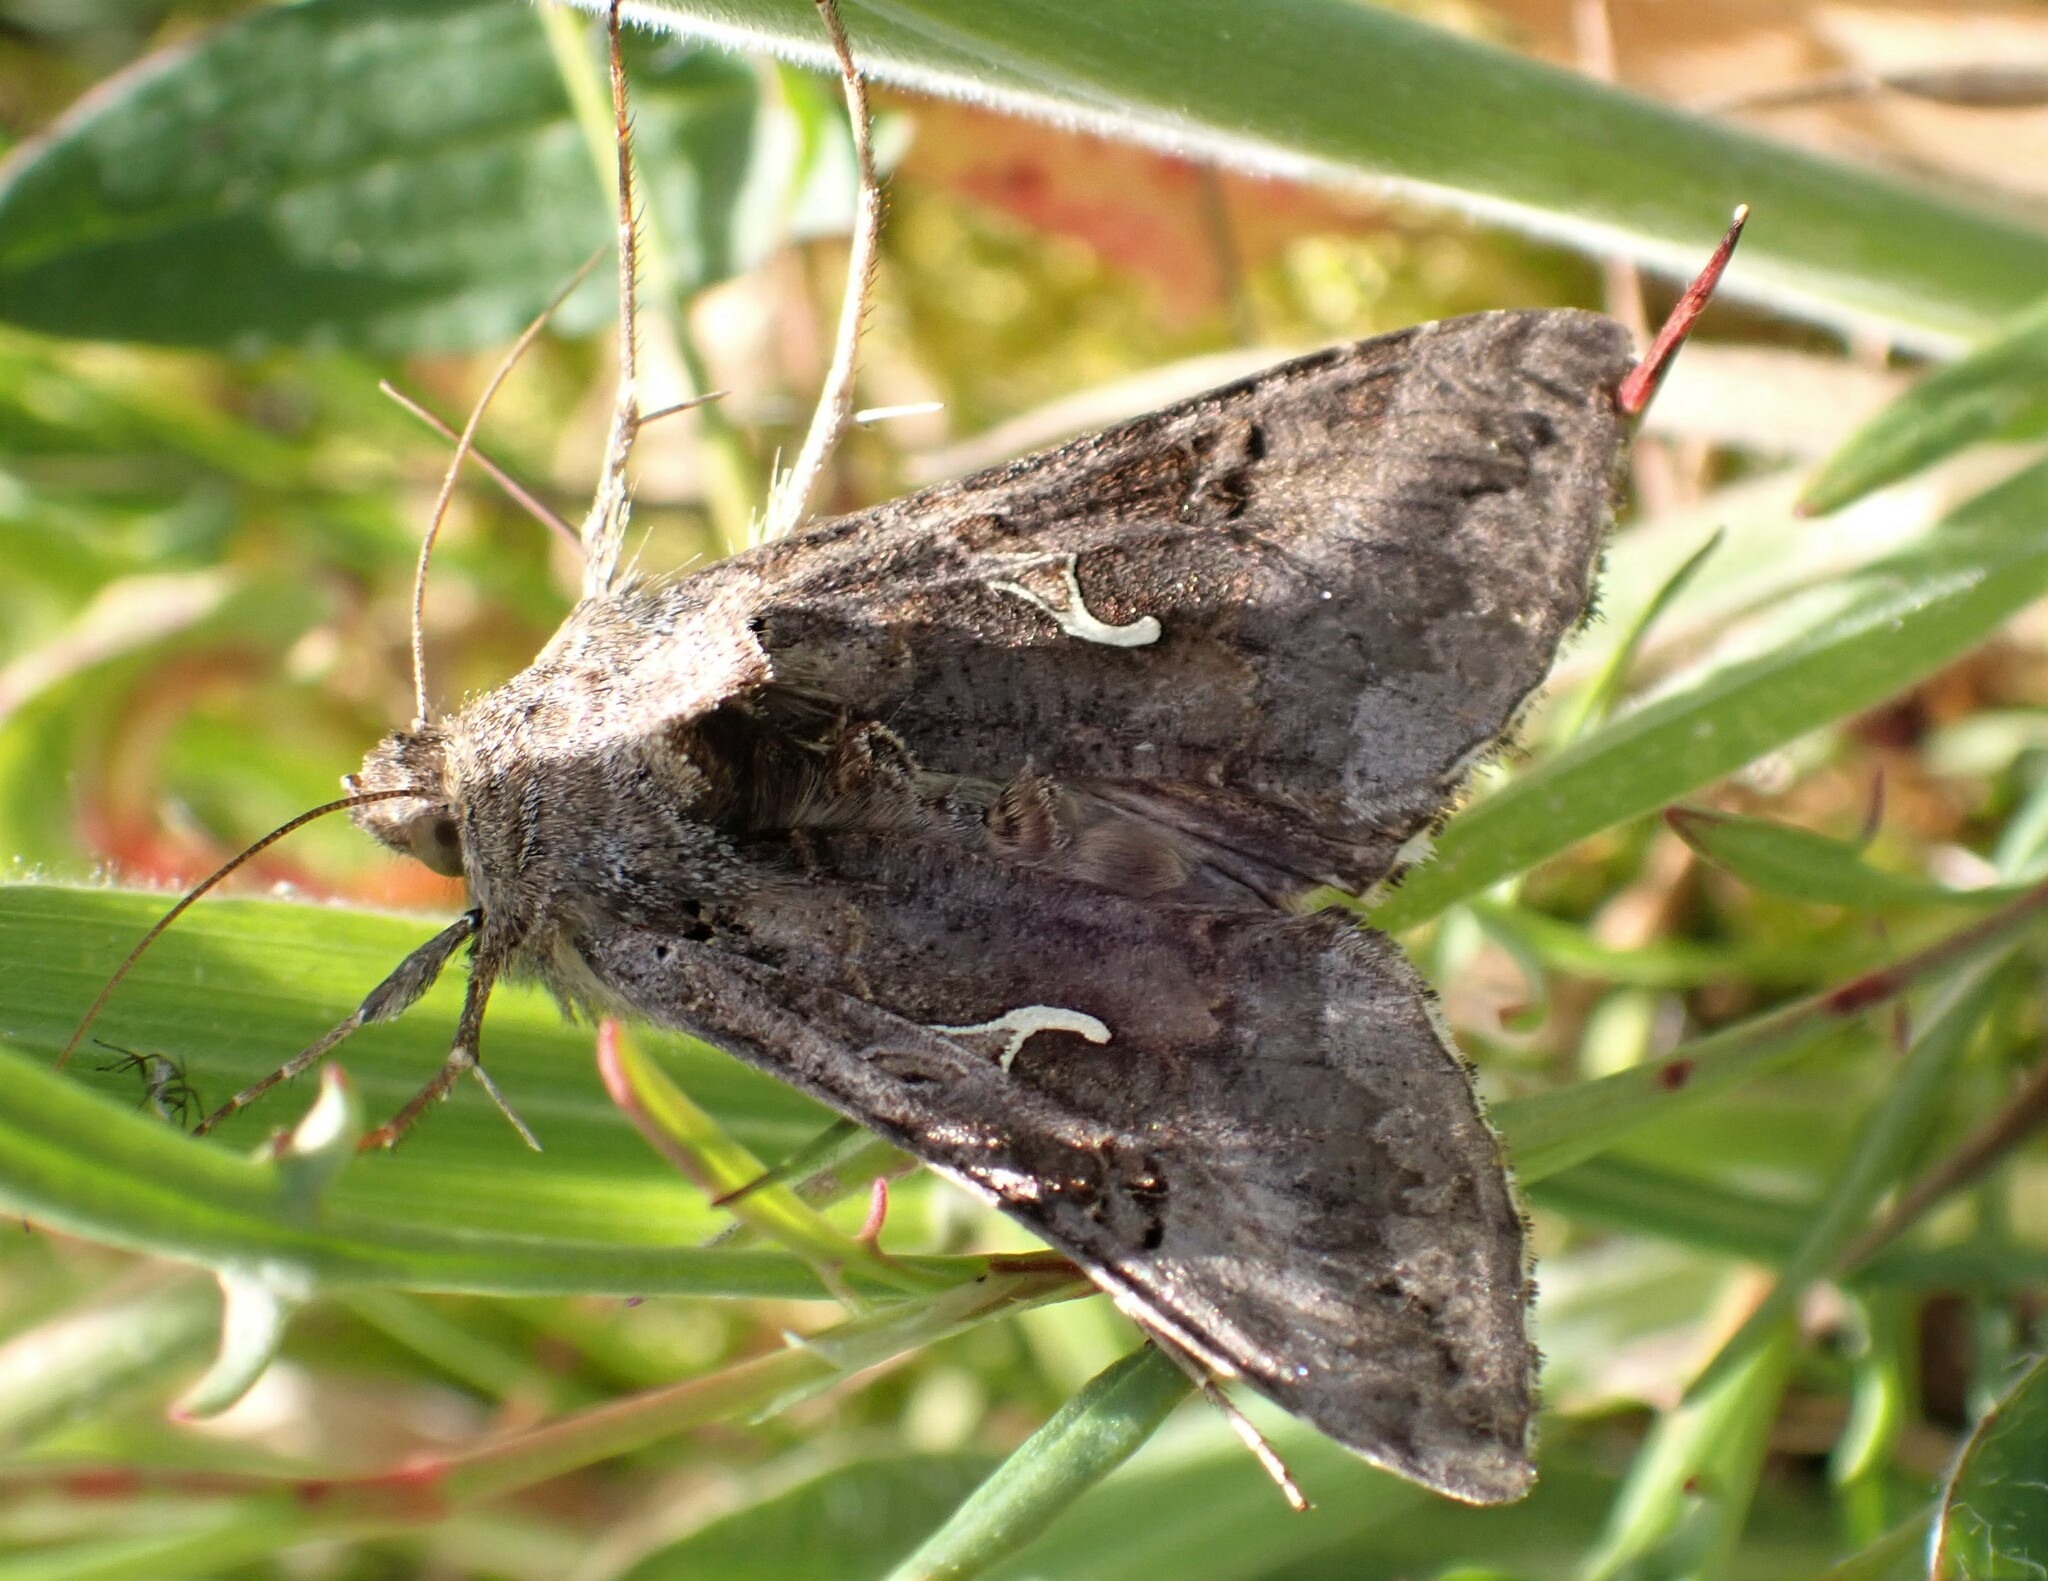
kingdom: Animalia
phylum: Arthropoda
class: Insecta
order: Lepidoptera
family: Noctuidae
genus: Autographa
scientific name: Autographa gamma
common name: Silver y
